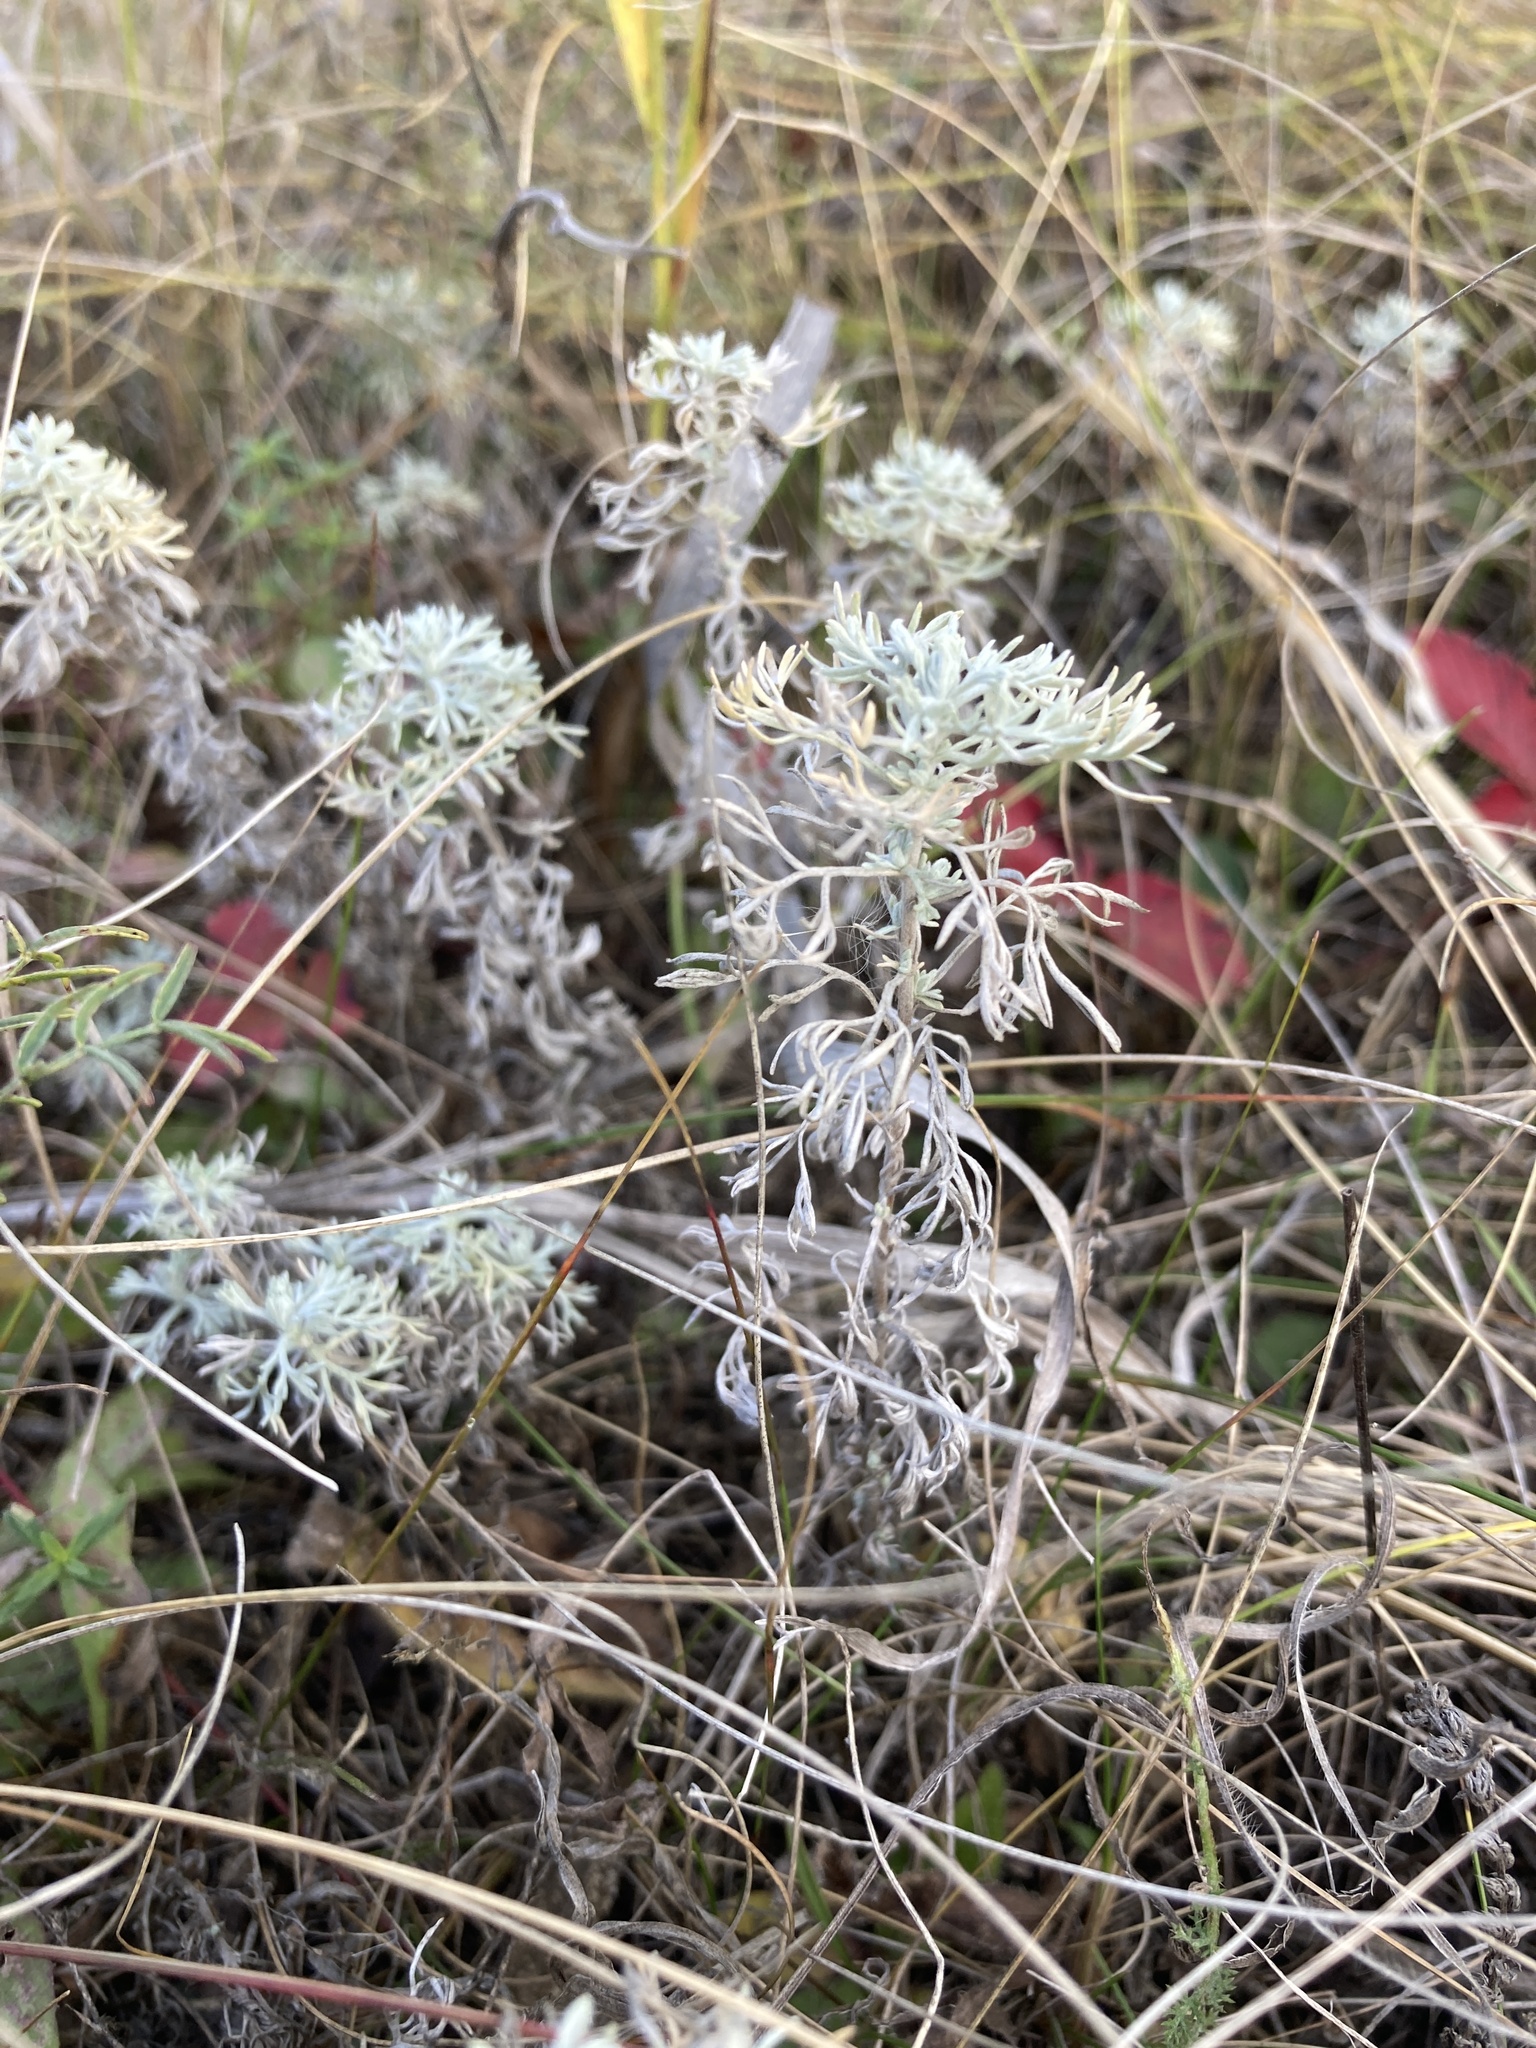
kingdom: Plantae
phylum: Tracheophyta
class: Magnoliopsida
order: Asterales
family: Asteraceae
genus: Artemisia
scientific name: Artemisia austriaca
